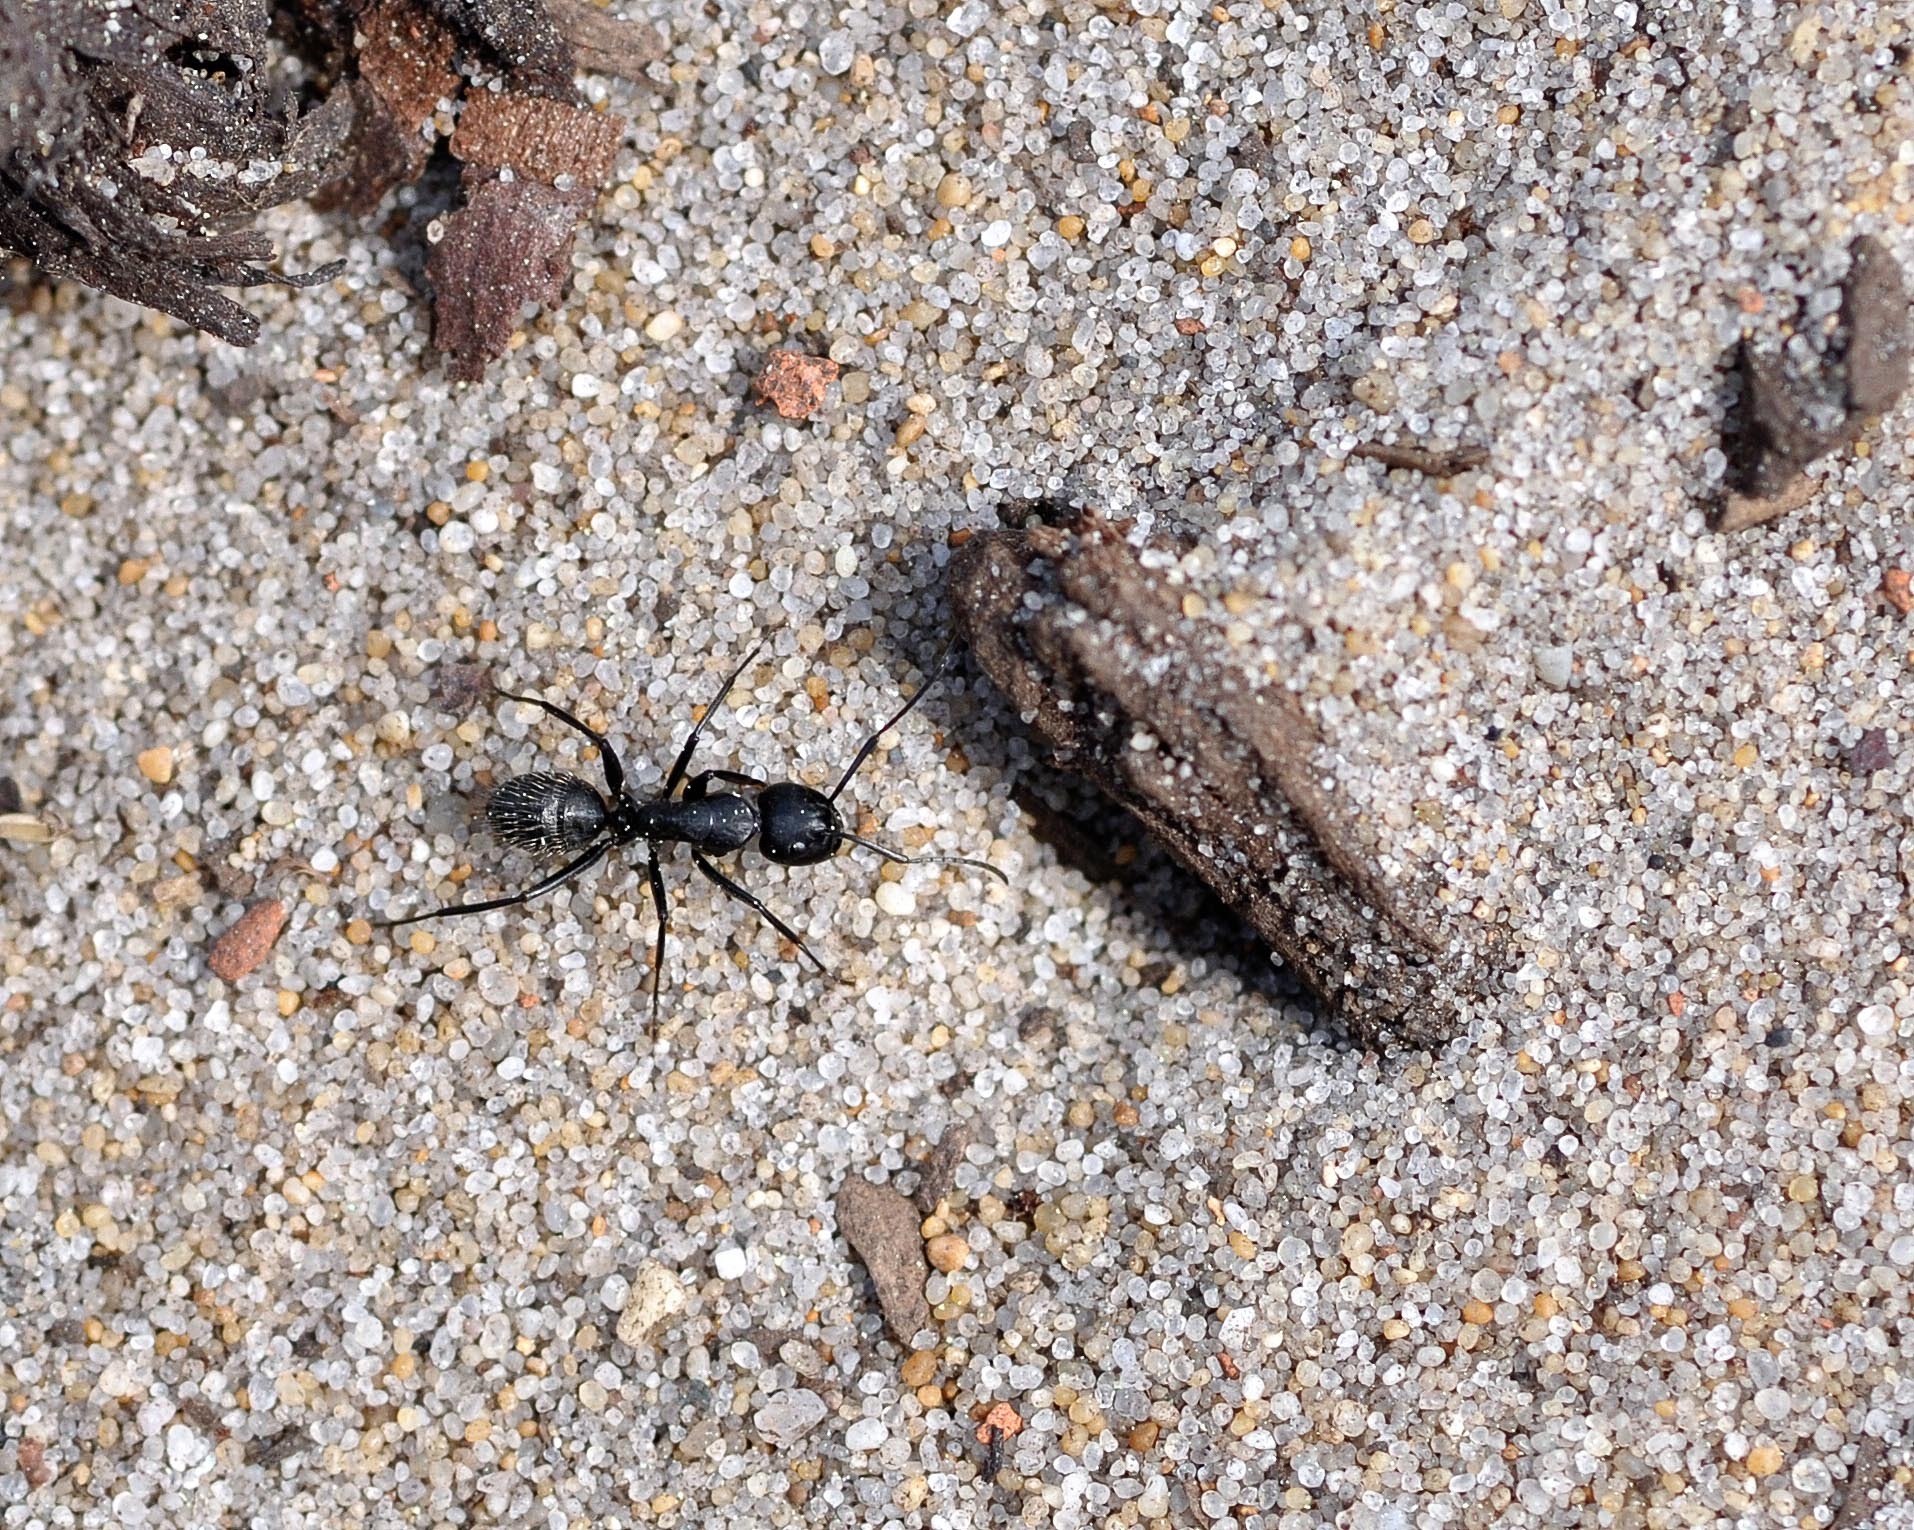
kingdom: Animalia
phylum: Arthropoda
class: Insecta
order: Hymenoptera
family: Formicidae
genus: Camponotus
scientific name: Camponotus vagus
